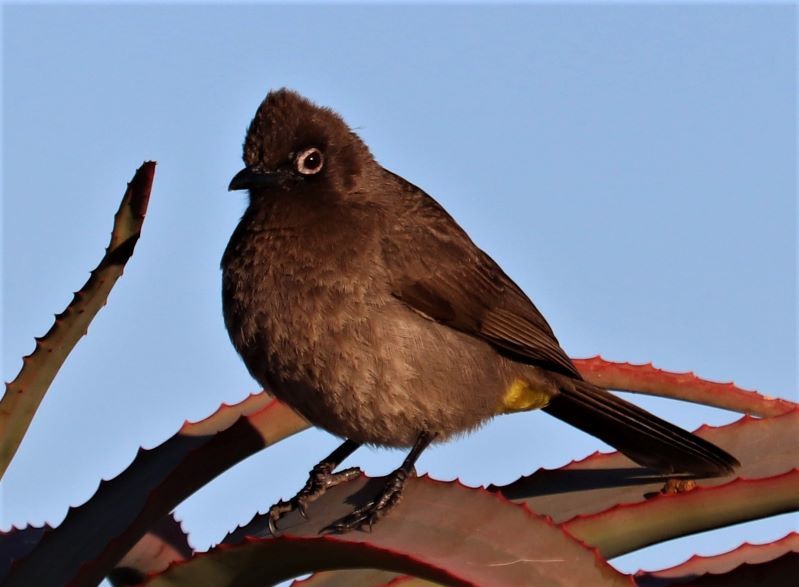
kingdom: Animalia
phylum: Chordata
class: Aves
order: Passeriformes
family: Pycnonotidae
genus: Pycnonotus
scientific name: Pycnonotus capensis
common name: Cape bulbul
